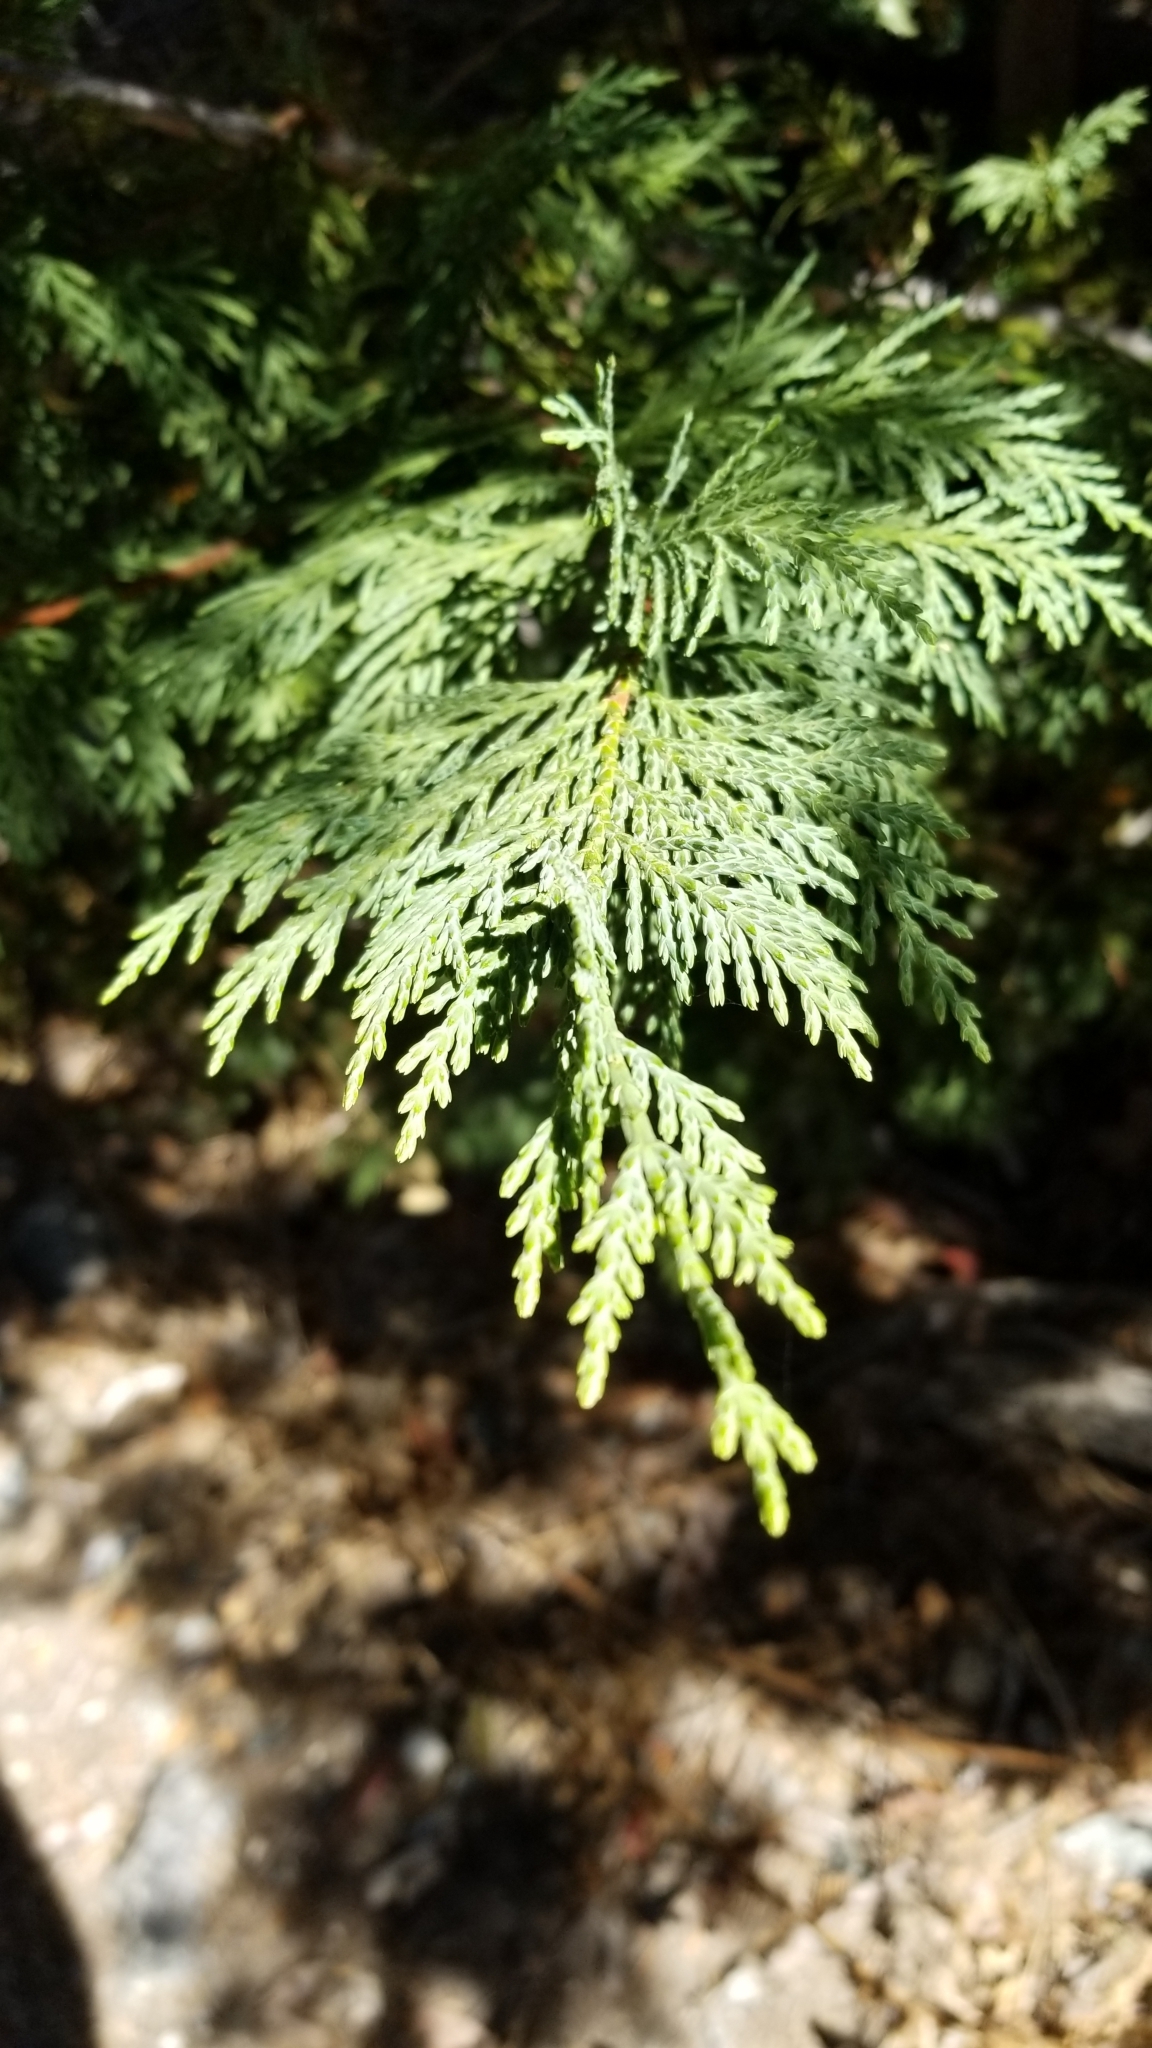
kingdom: Plantae
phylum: Tracheophyta
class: Pinopsida
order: Pinales
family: Cupressaceae
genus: Calocedrus
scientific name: Calocedrus decurrens
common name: Californian incense-cedar
